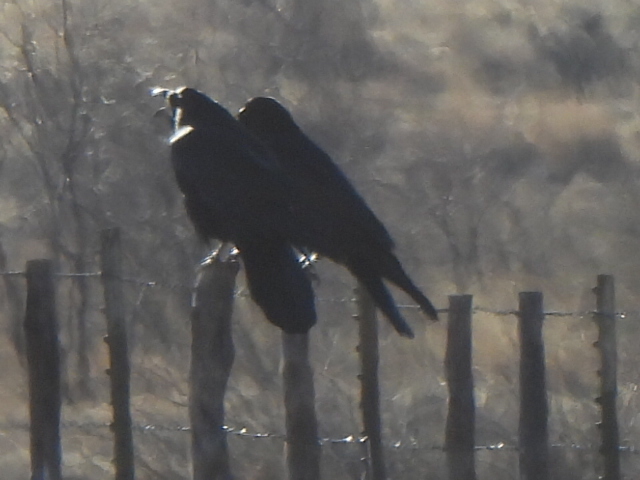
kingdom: Animalia
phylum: Chordata
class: Aves
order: Passeriformes
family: Corvidae
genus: Corvus
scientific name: Corvus corax
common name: Common raven
